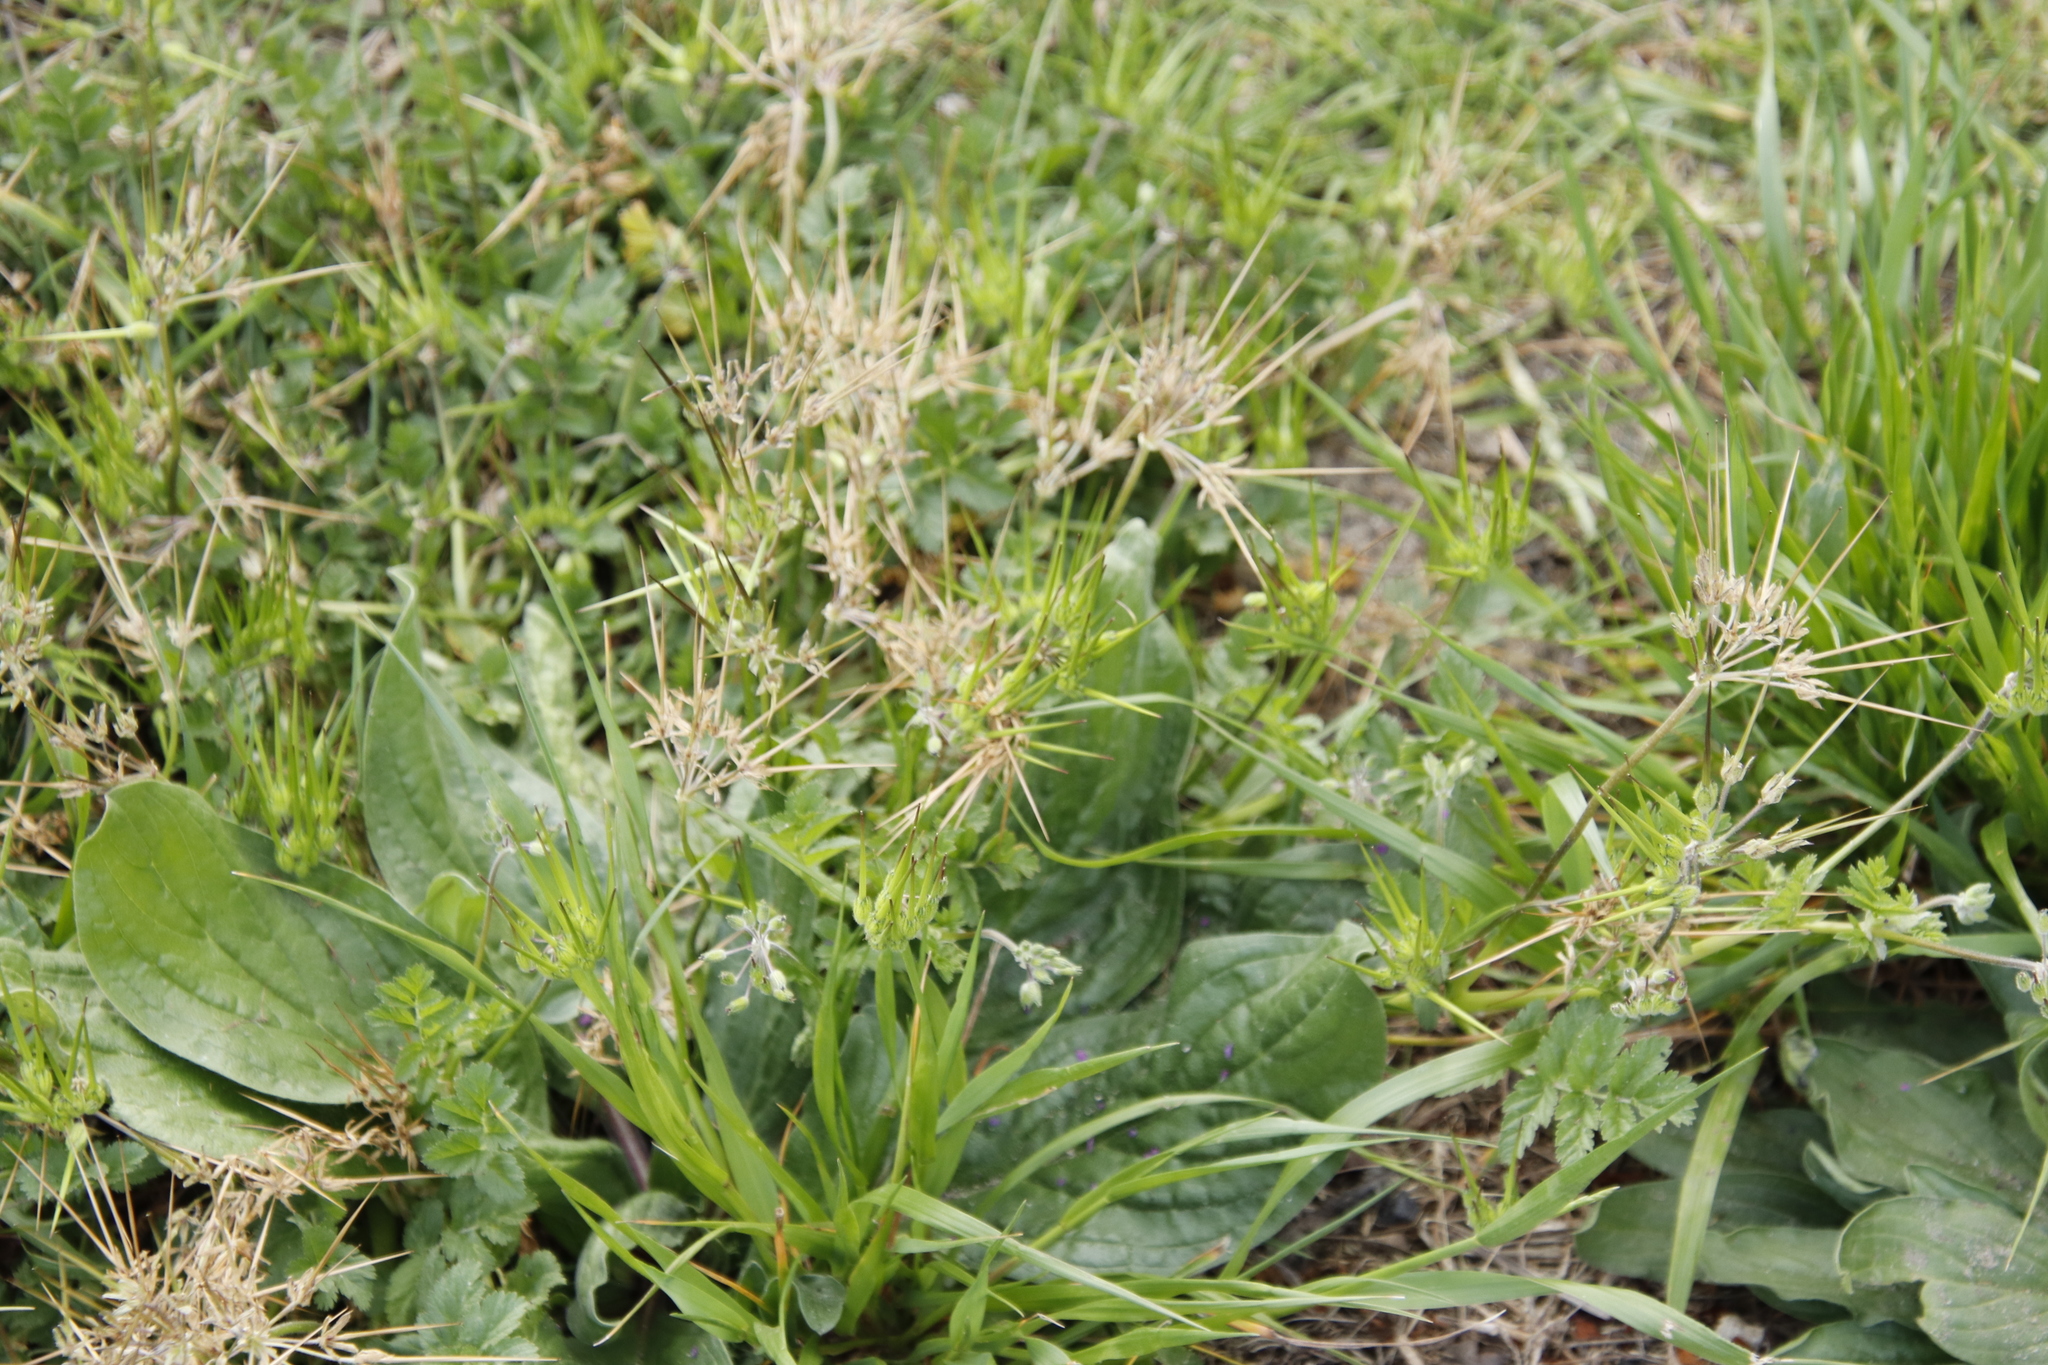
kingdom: Plantae
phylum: Tracheophyta
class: Magnoliopsida
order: Geraniales
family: Geraniaceae
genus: Erodium
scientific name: Erodium moschatum
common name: Musk stork's-bill
